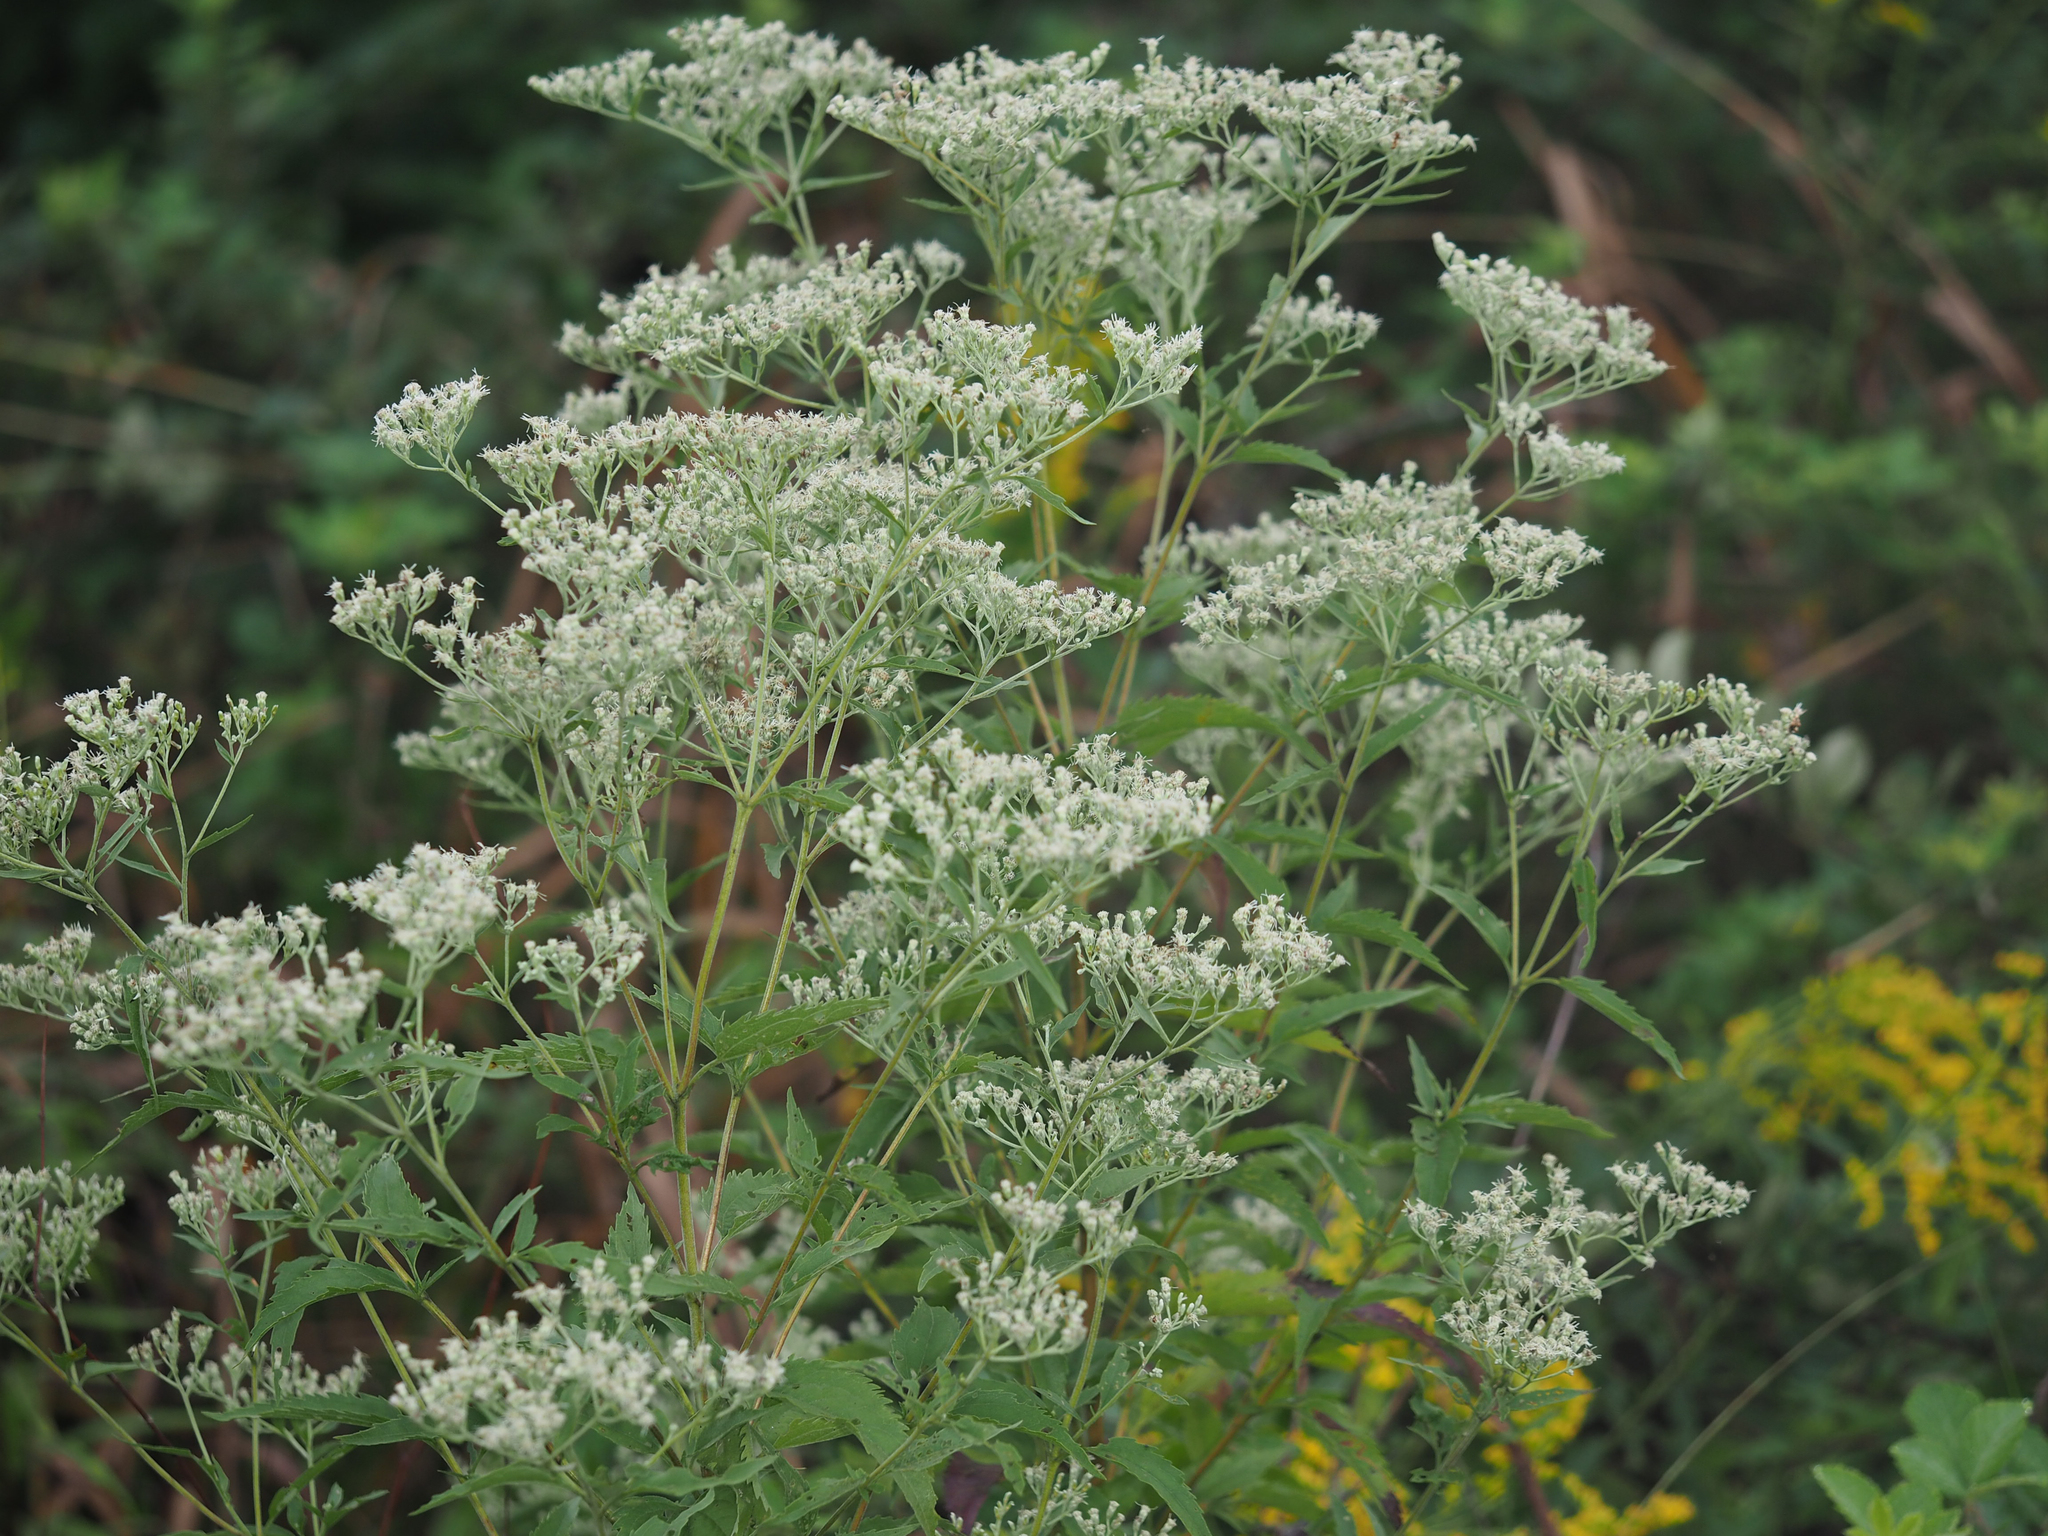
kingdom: Plantae
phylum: Tracheophyta
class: Magnoliopsida
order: Asterales
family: Asteraceae
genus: Eupatorium
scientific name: Eupatorium serotinum
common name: Late boneset
